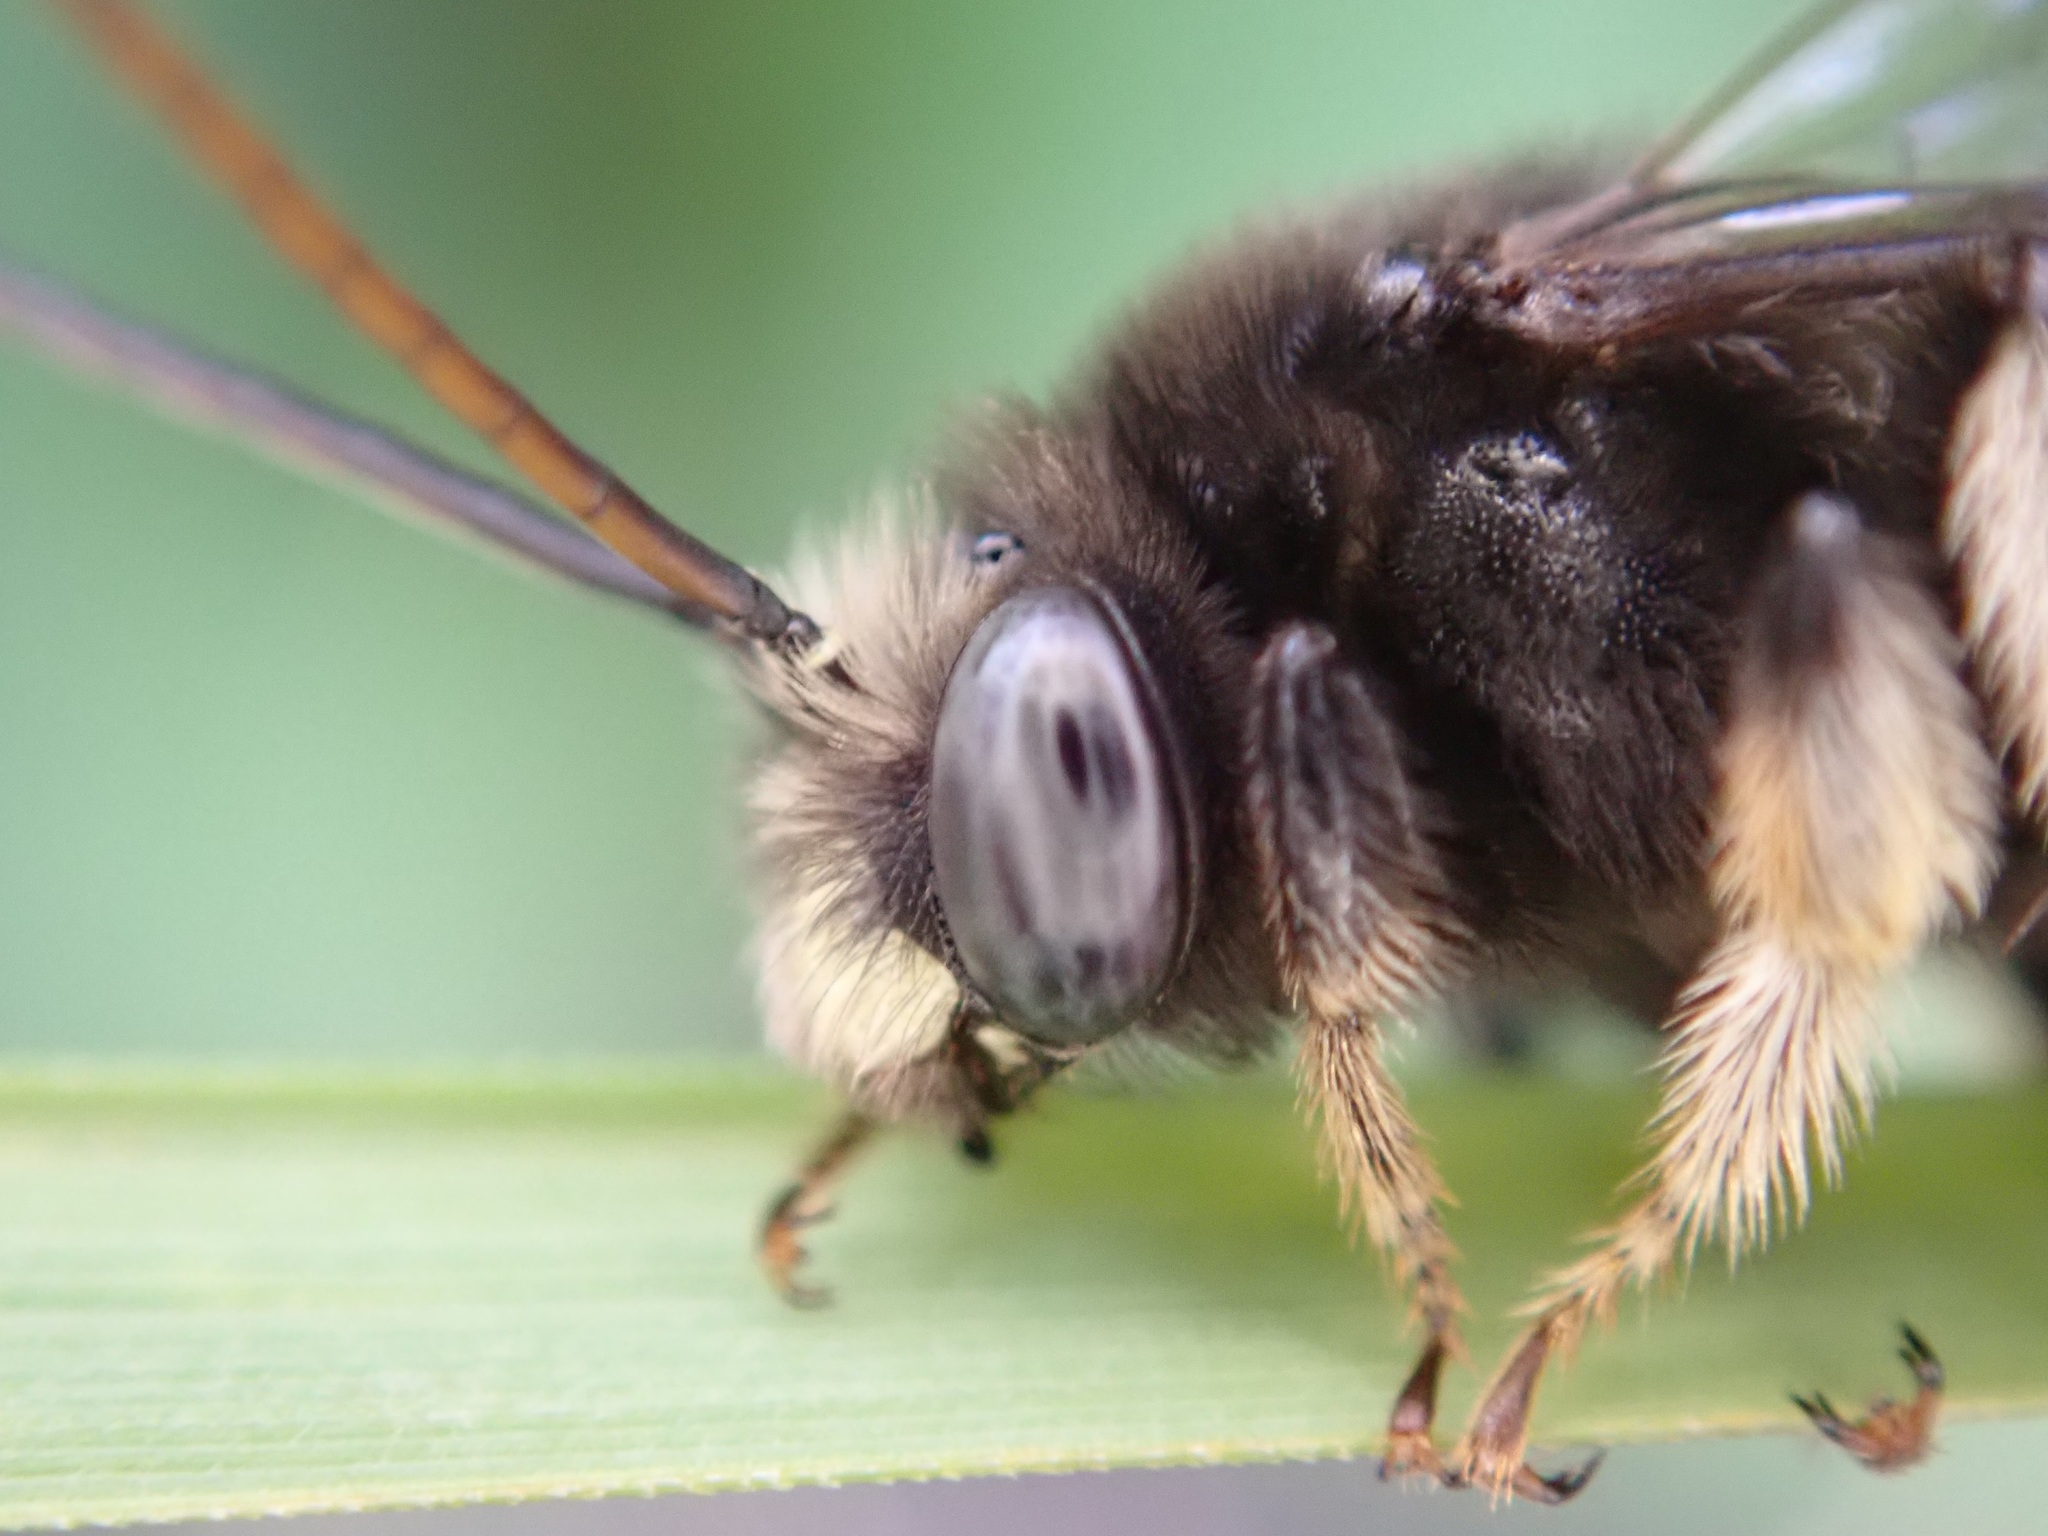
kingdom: Animalia
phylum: Arthropoda
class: Insecta
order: Hymenoptera
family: Apidae
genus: Melissodes
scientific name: Melissodes bimaculatus
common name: Two-spotted long-horned bee
